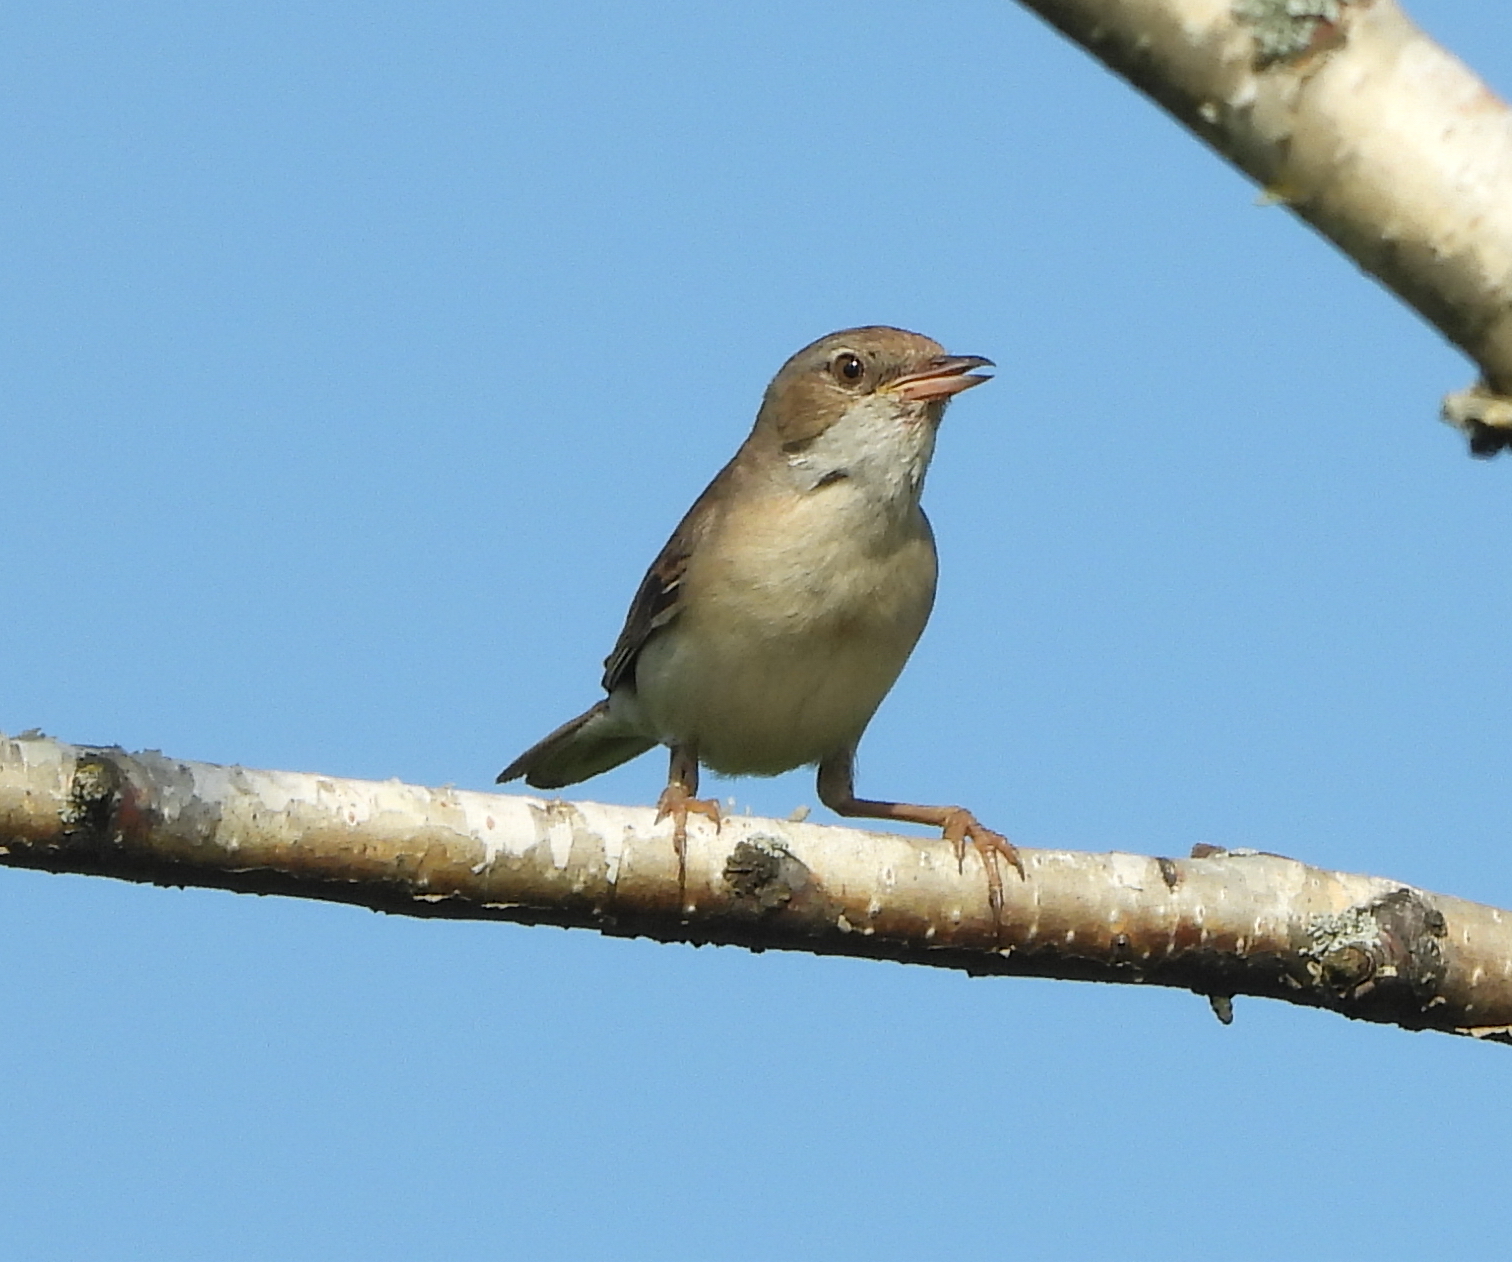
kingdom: Animalia
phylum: Chordata
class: Aves
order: Passeriformes
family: Sylviidae
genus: Sylvia
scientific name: Sylvia communis
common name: Common whitethroat
